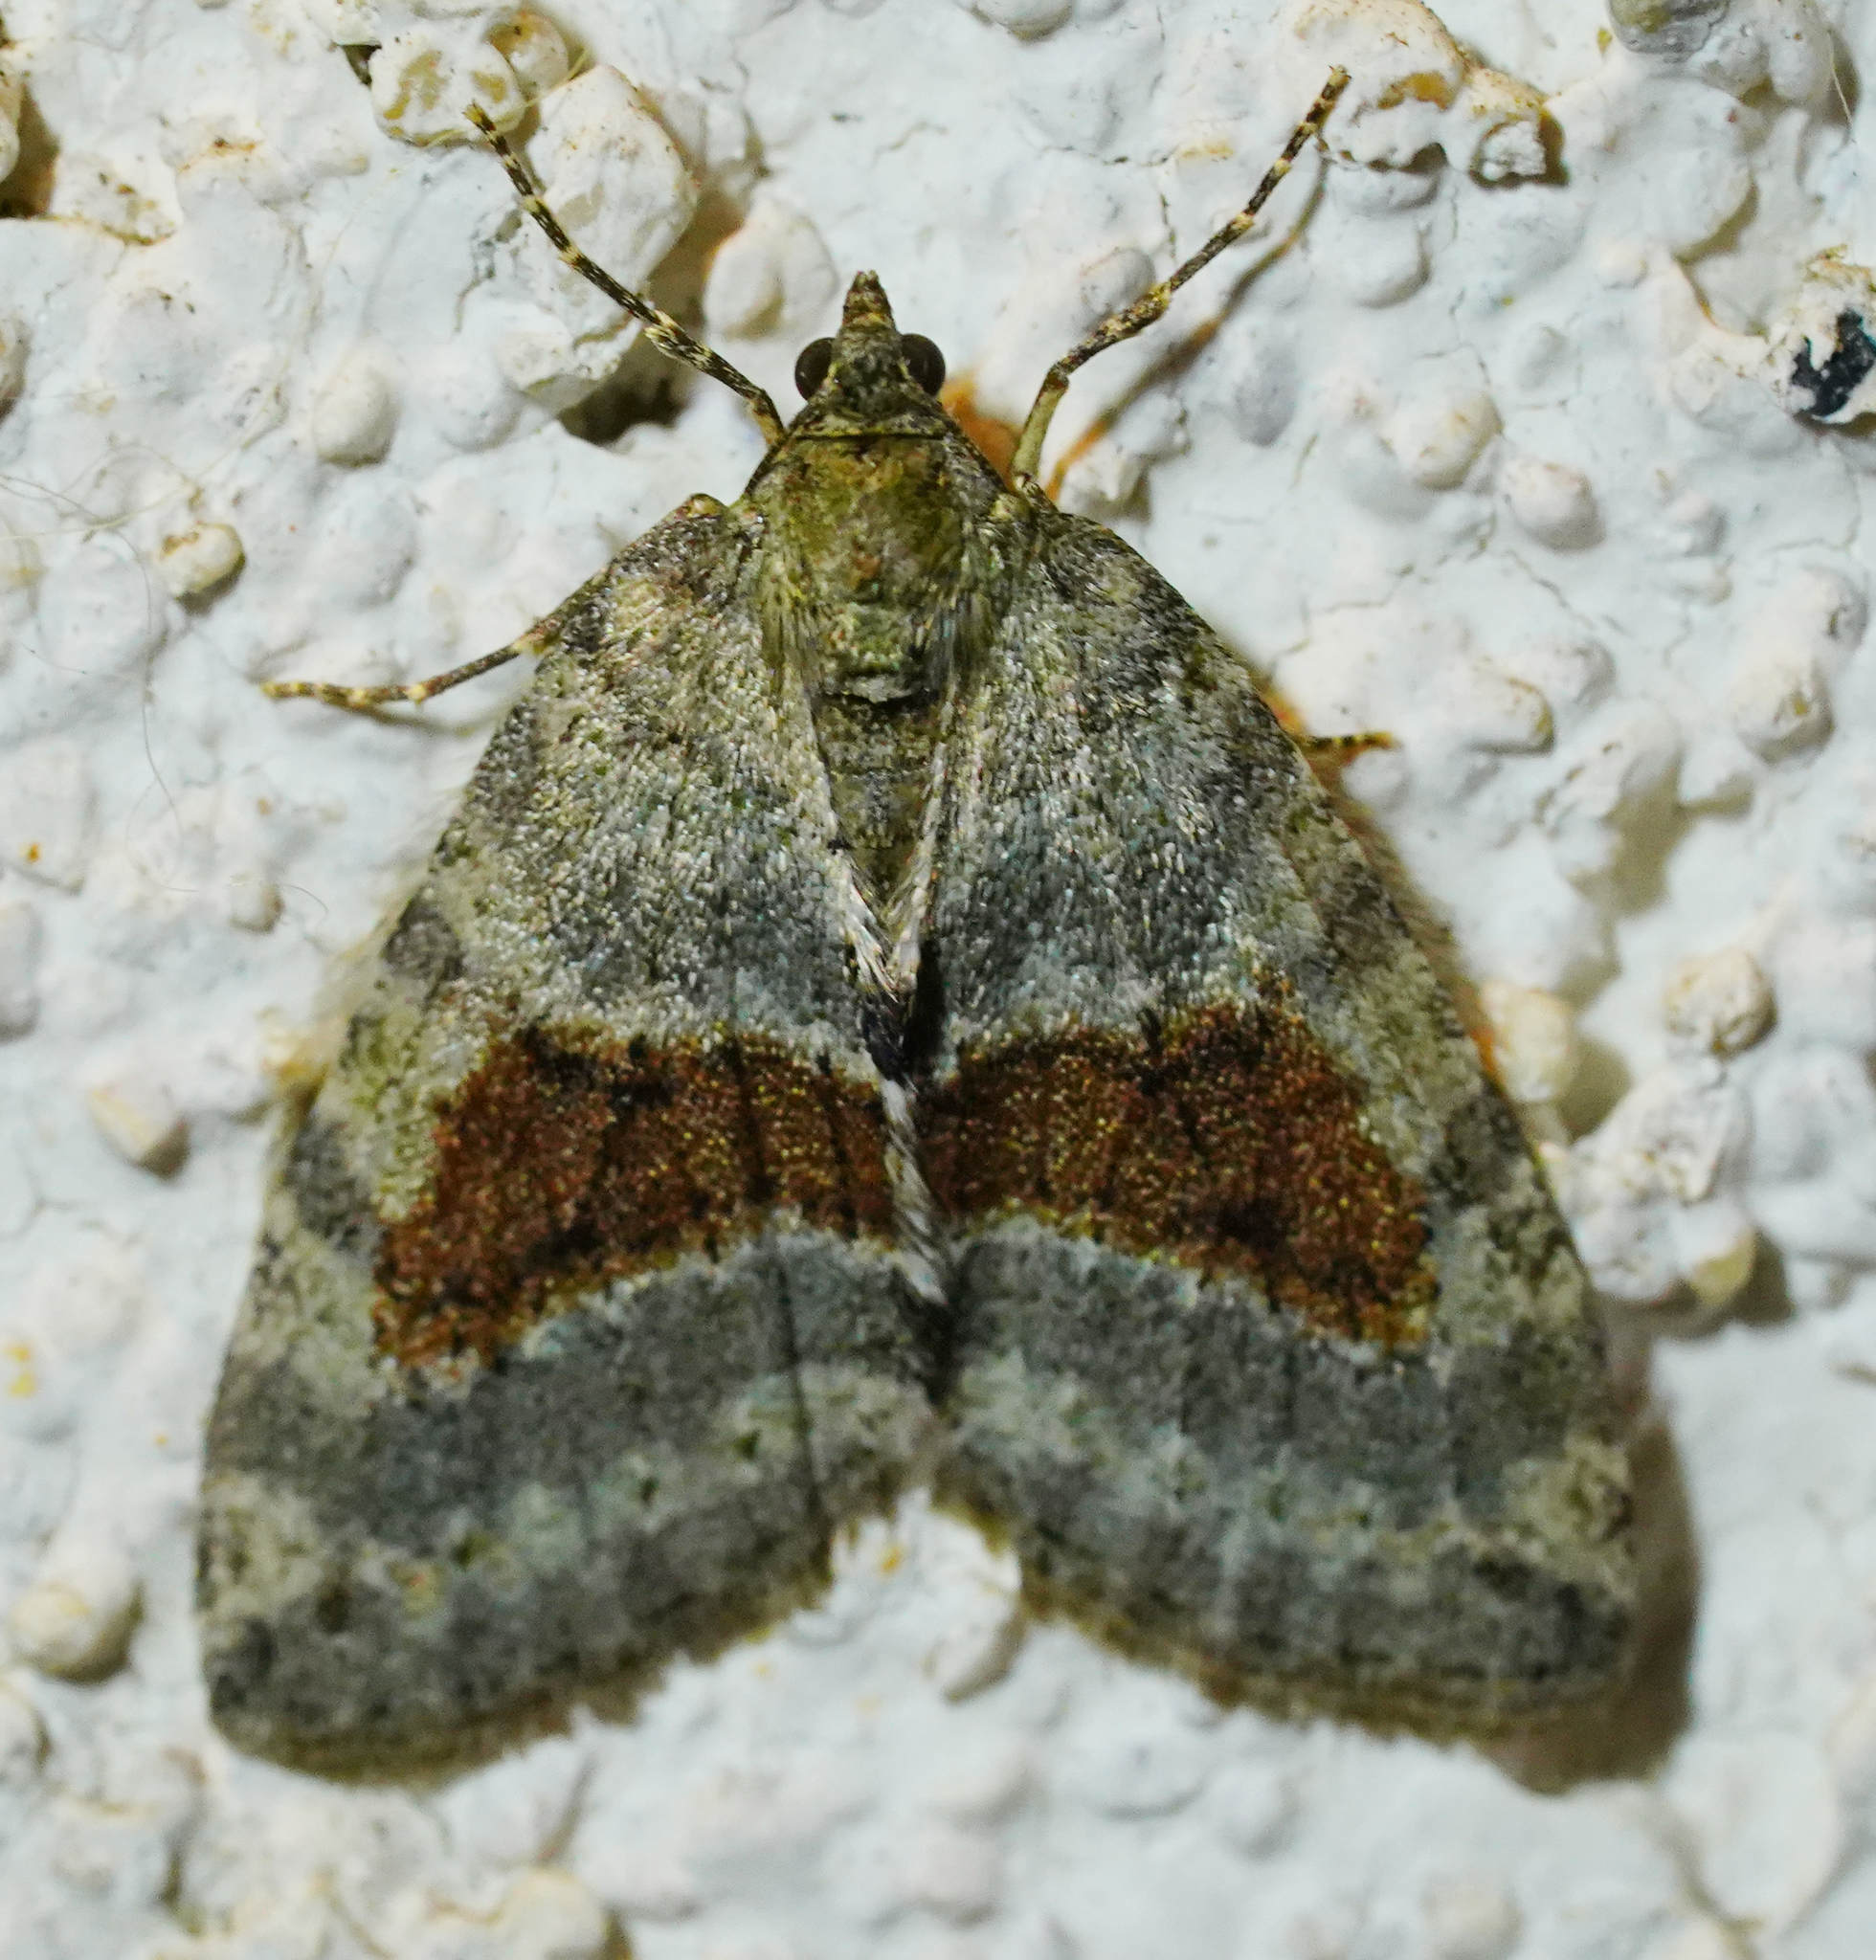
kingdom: Animalia
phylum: Arthropoda
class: Insecta
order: Lepidoptera
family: Geometridae
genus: Hydriomena
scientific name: Hydriomena nubilofasciata
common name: Oak winter highflier moth
